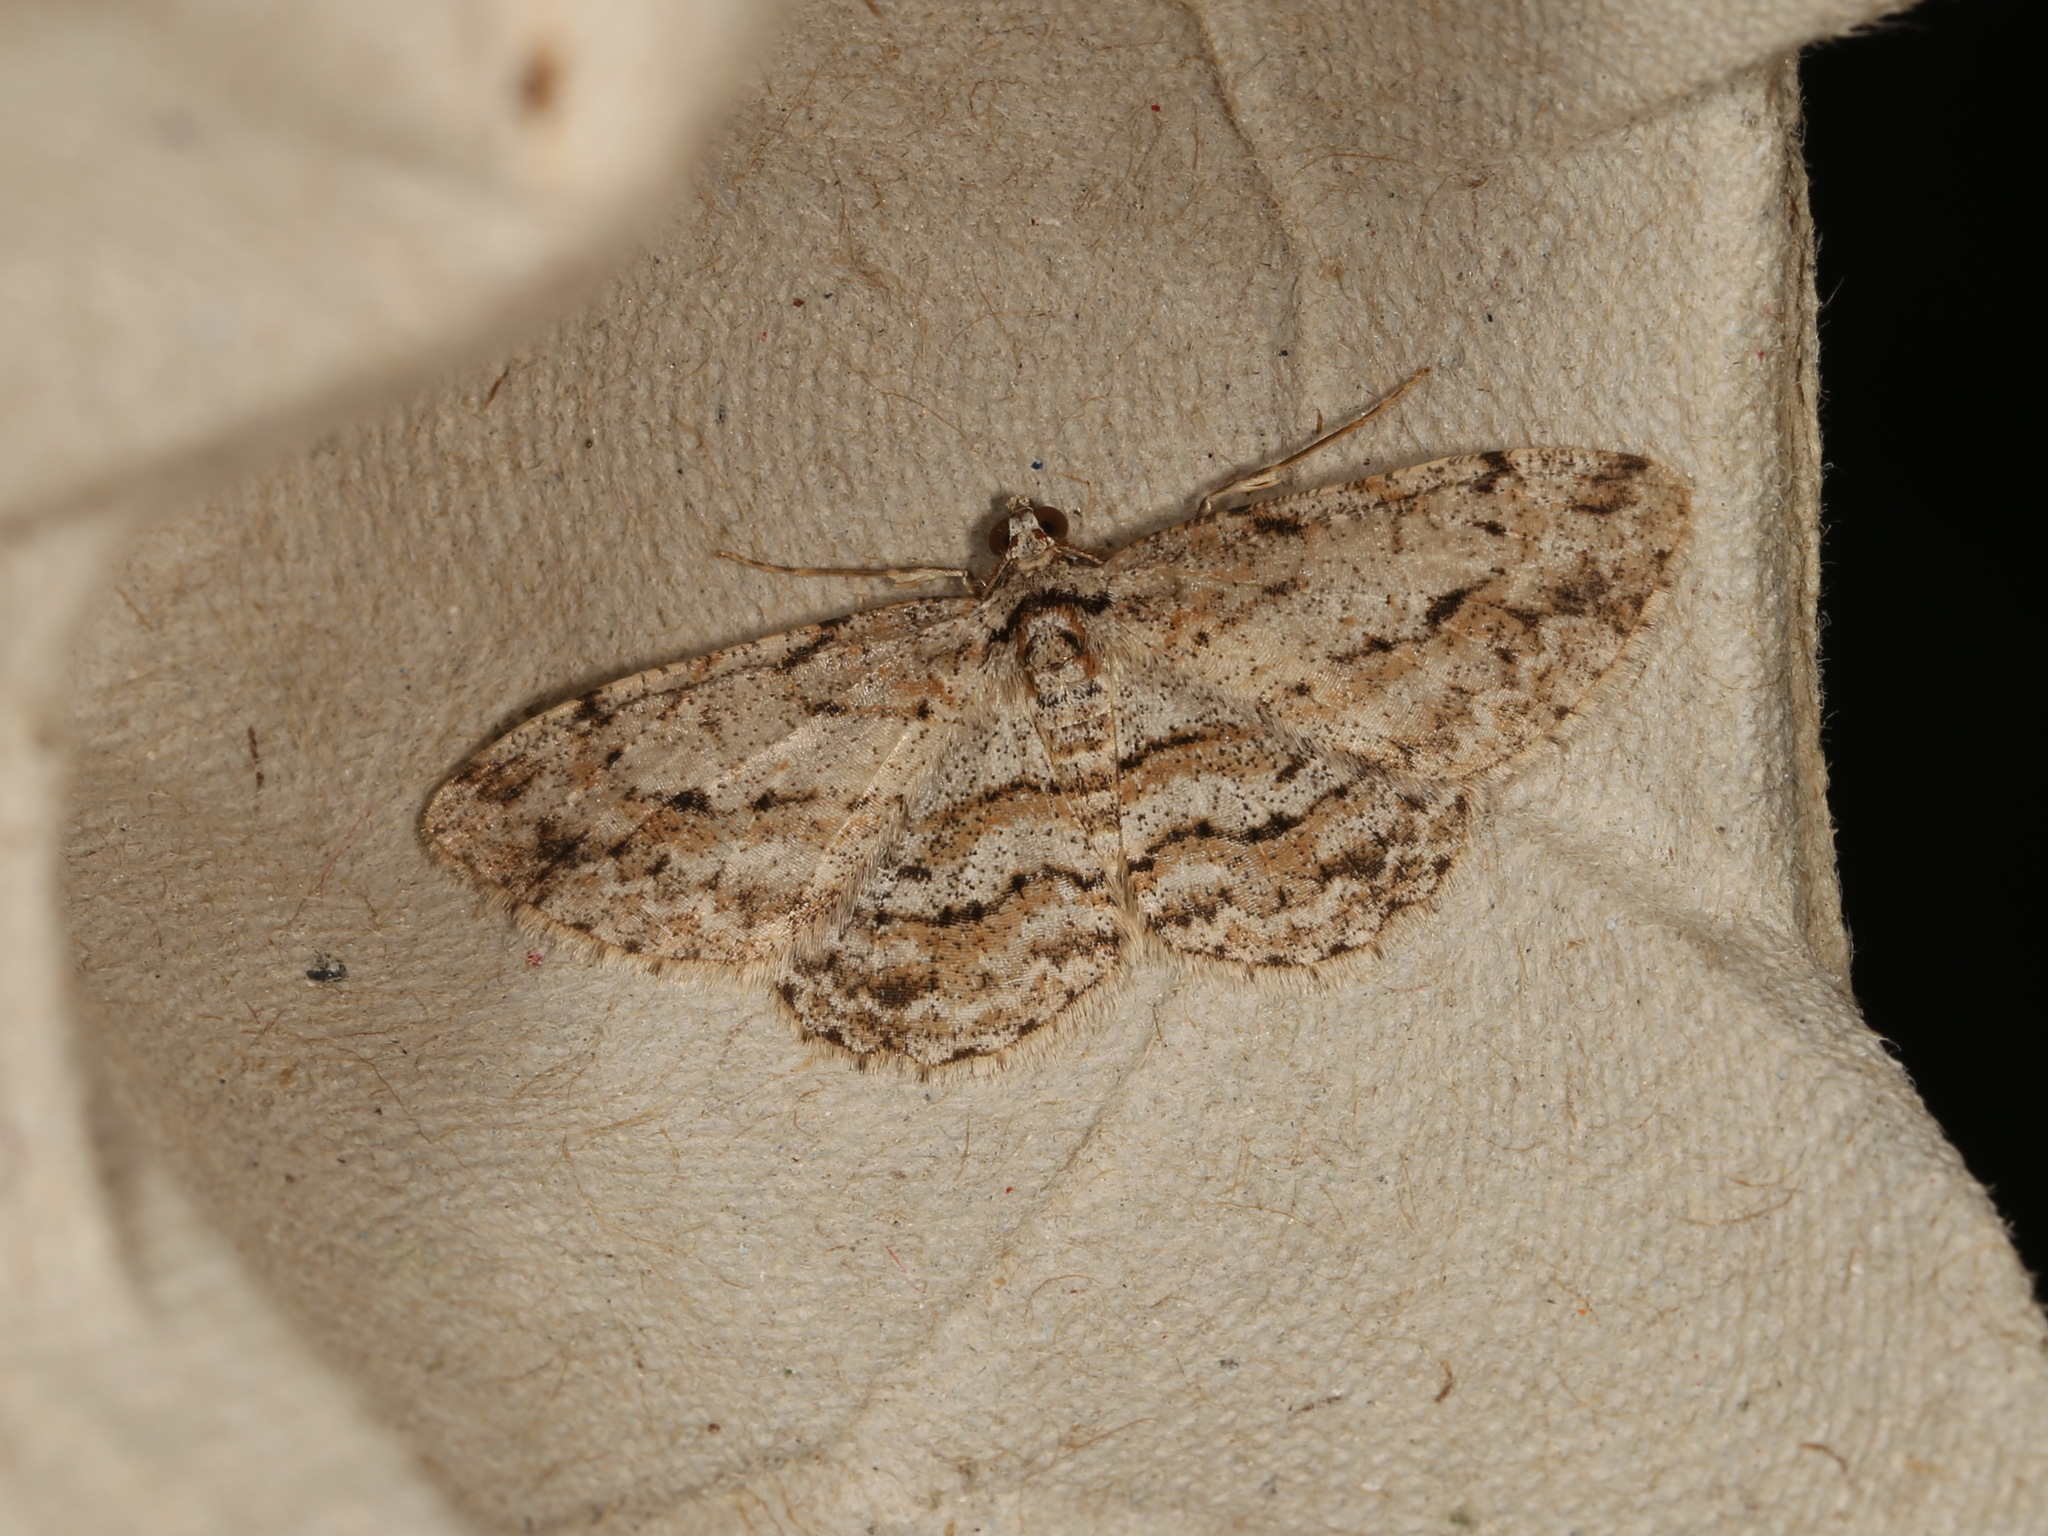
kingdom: Animalia
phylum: Arthropoda
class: Insecta
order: Lepidoptera
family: Geometridae
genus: Didymoctenia
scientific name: Didymoctenia exsuperata
